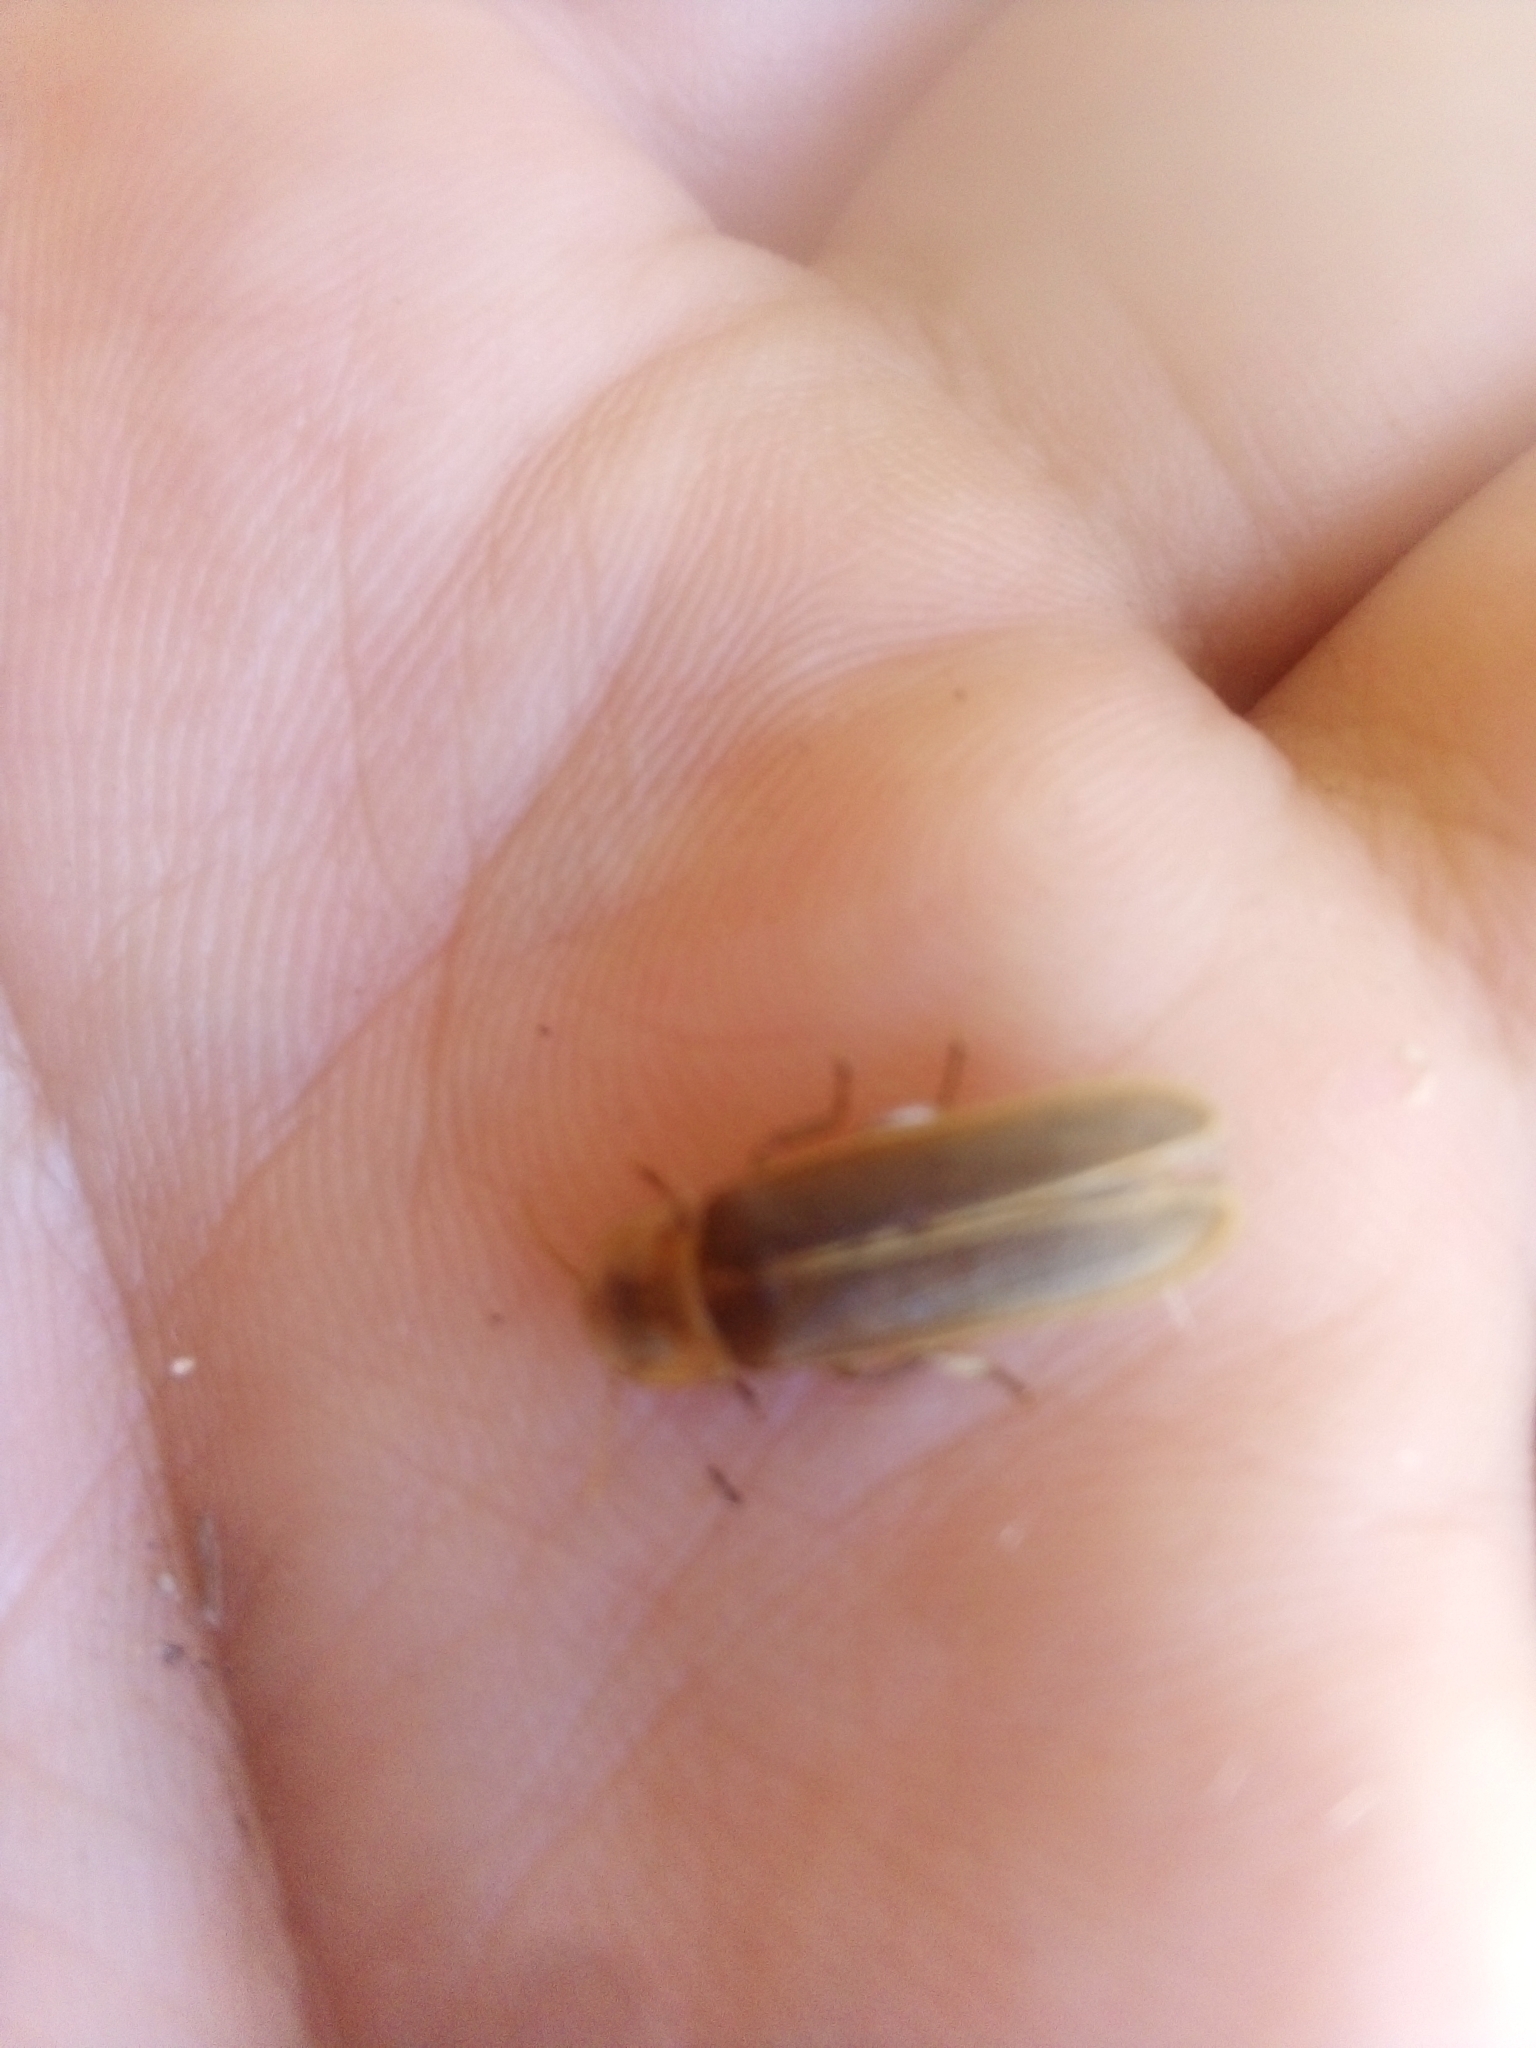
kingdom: Animalia
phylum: Arthropoda
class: Insecta
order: Coleoptera
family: Lampyridae
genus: Nyctophila
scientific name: Nyctophila reichii
